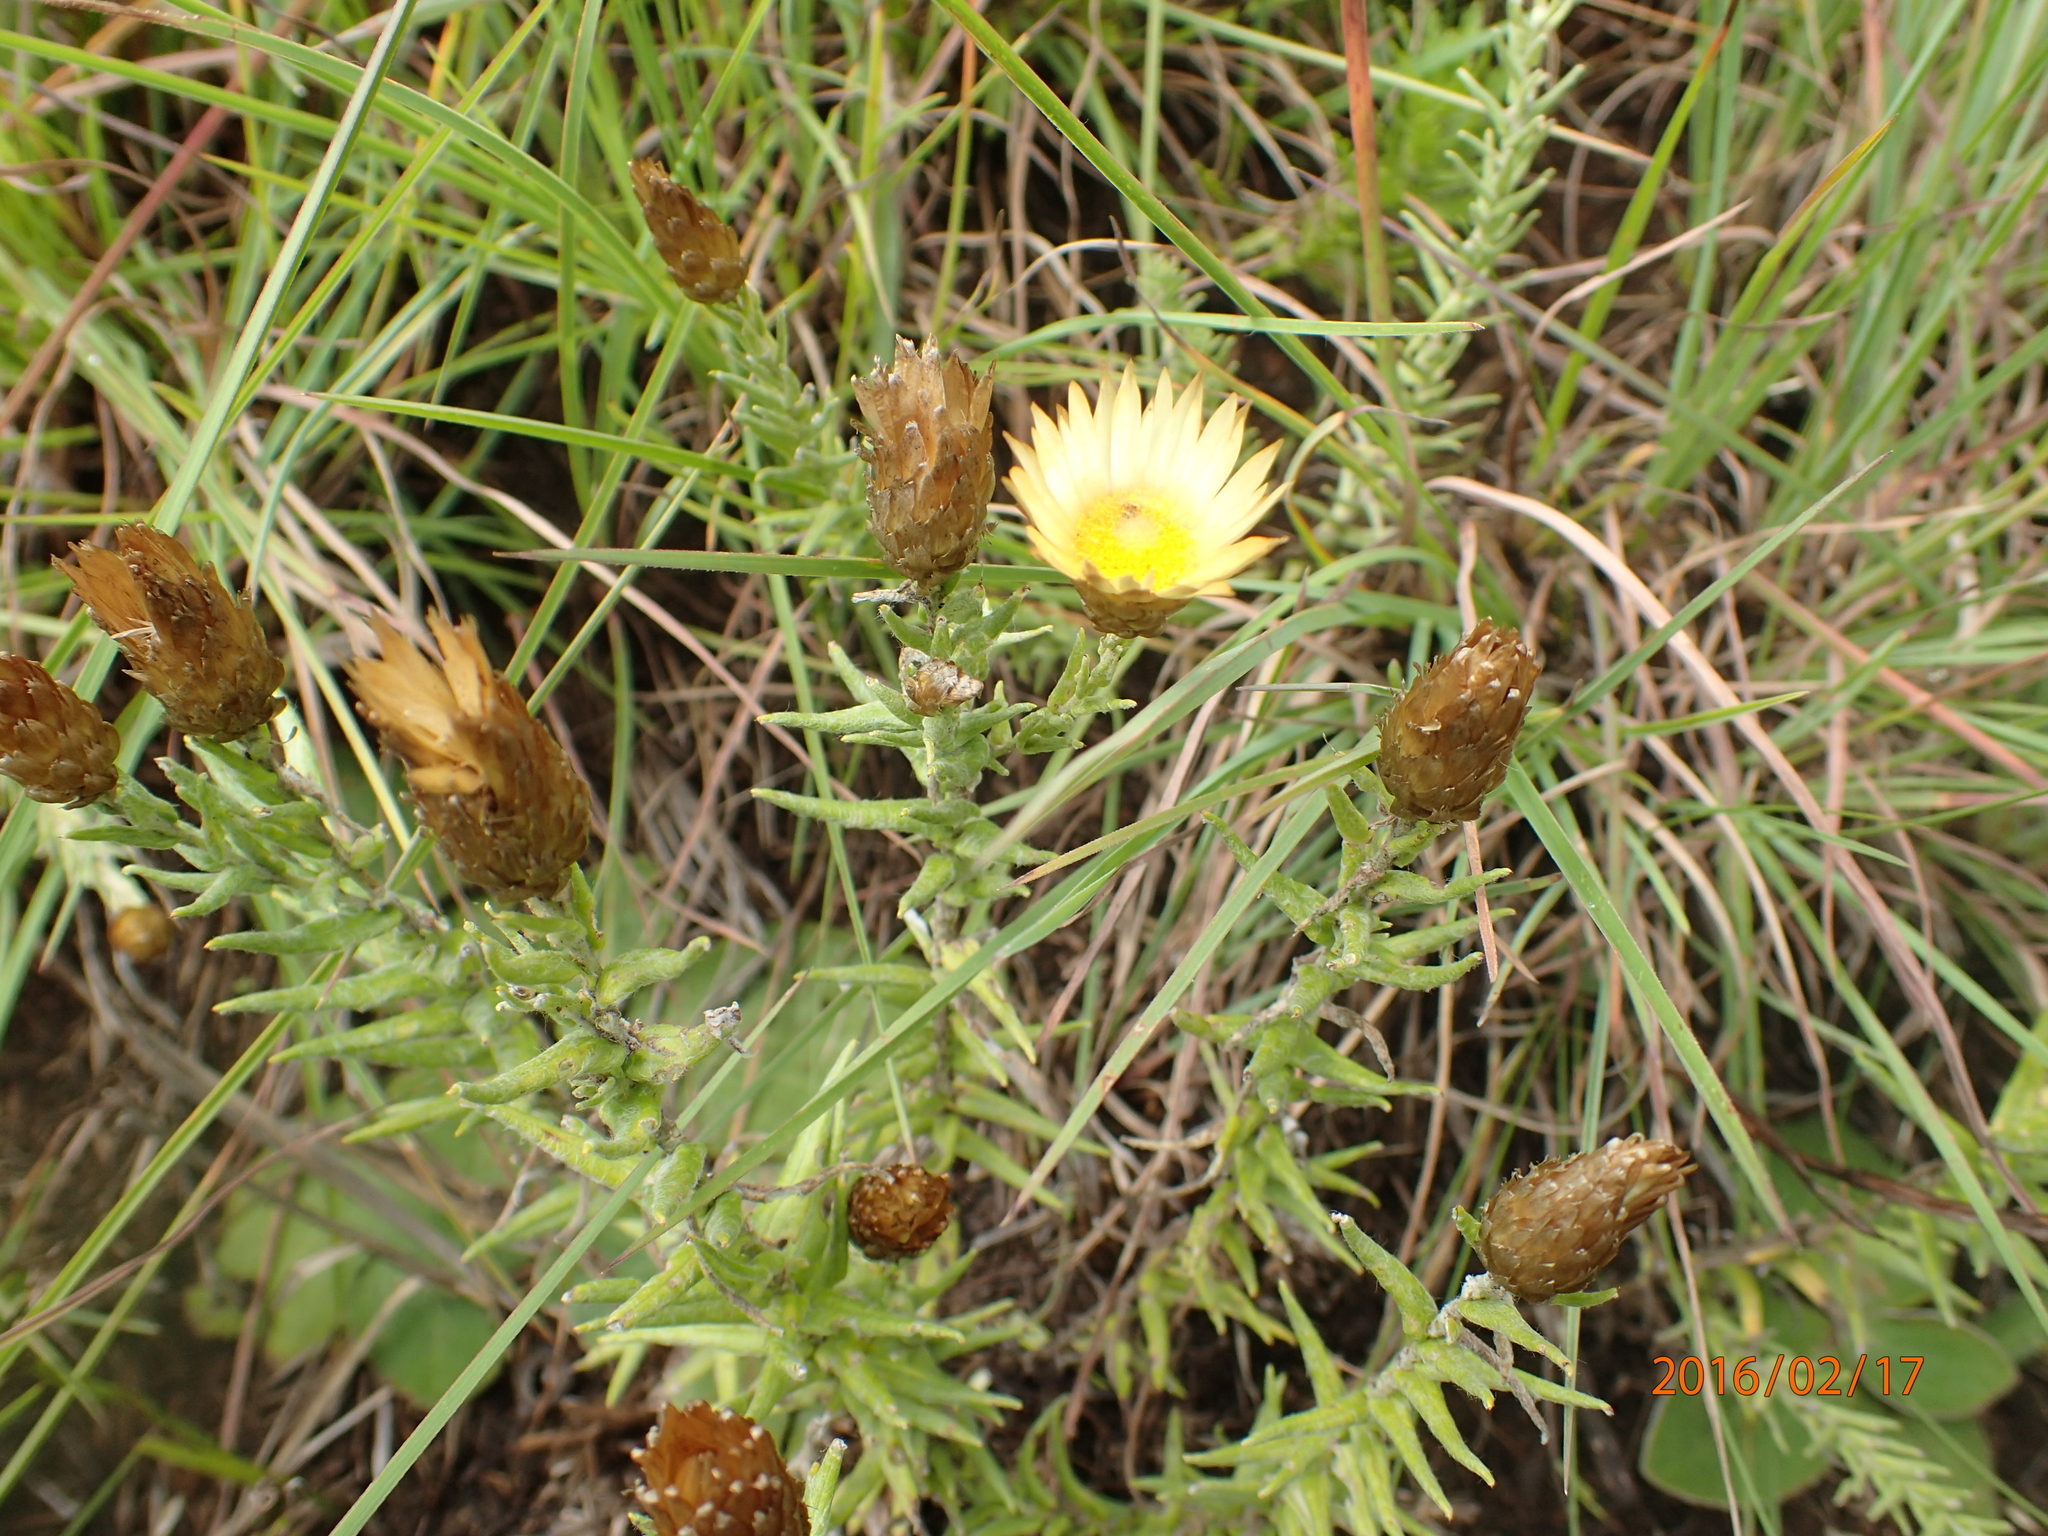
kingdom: Plantae
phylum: Tracheophyta
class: Magnoliopsida
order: Asterales
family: Asteraceae
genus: Helichrysum
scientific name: Helichrysum herbaceum
